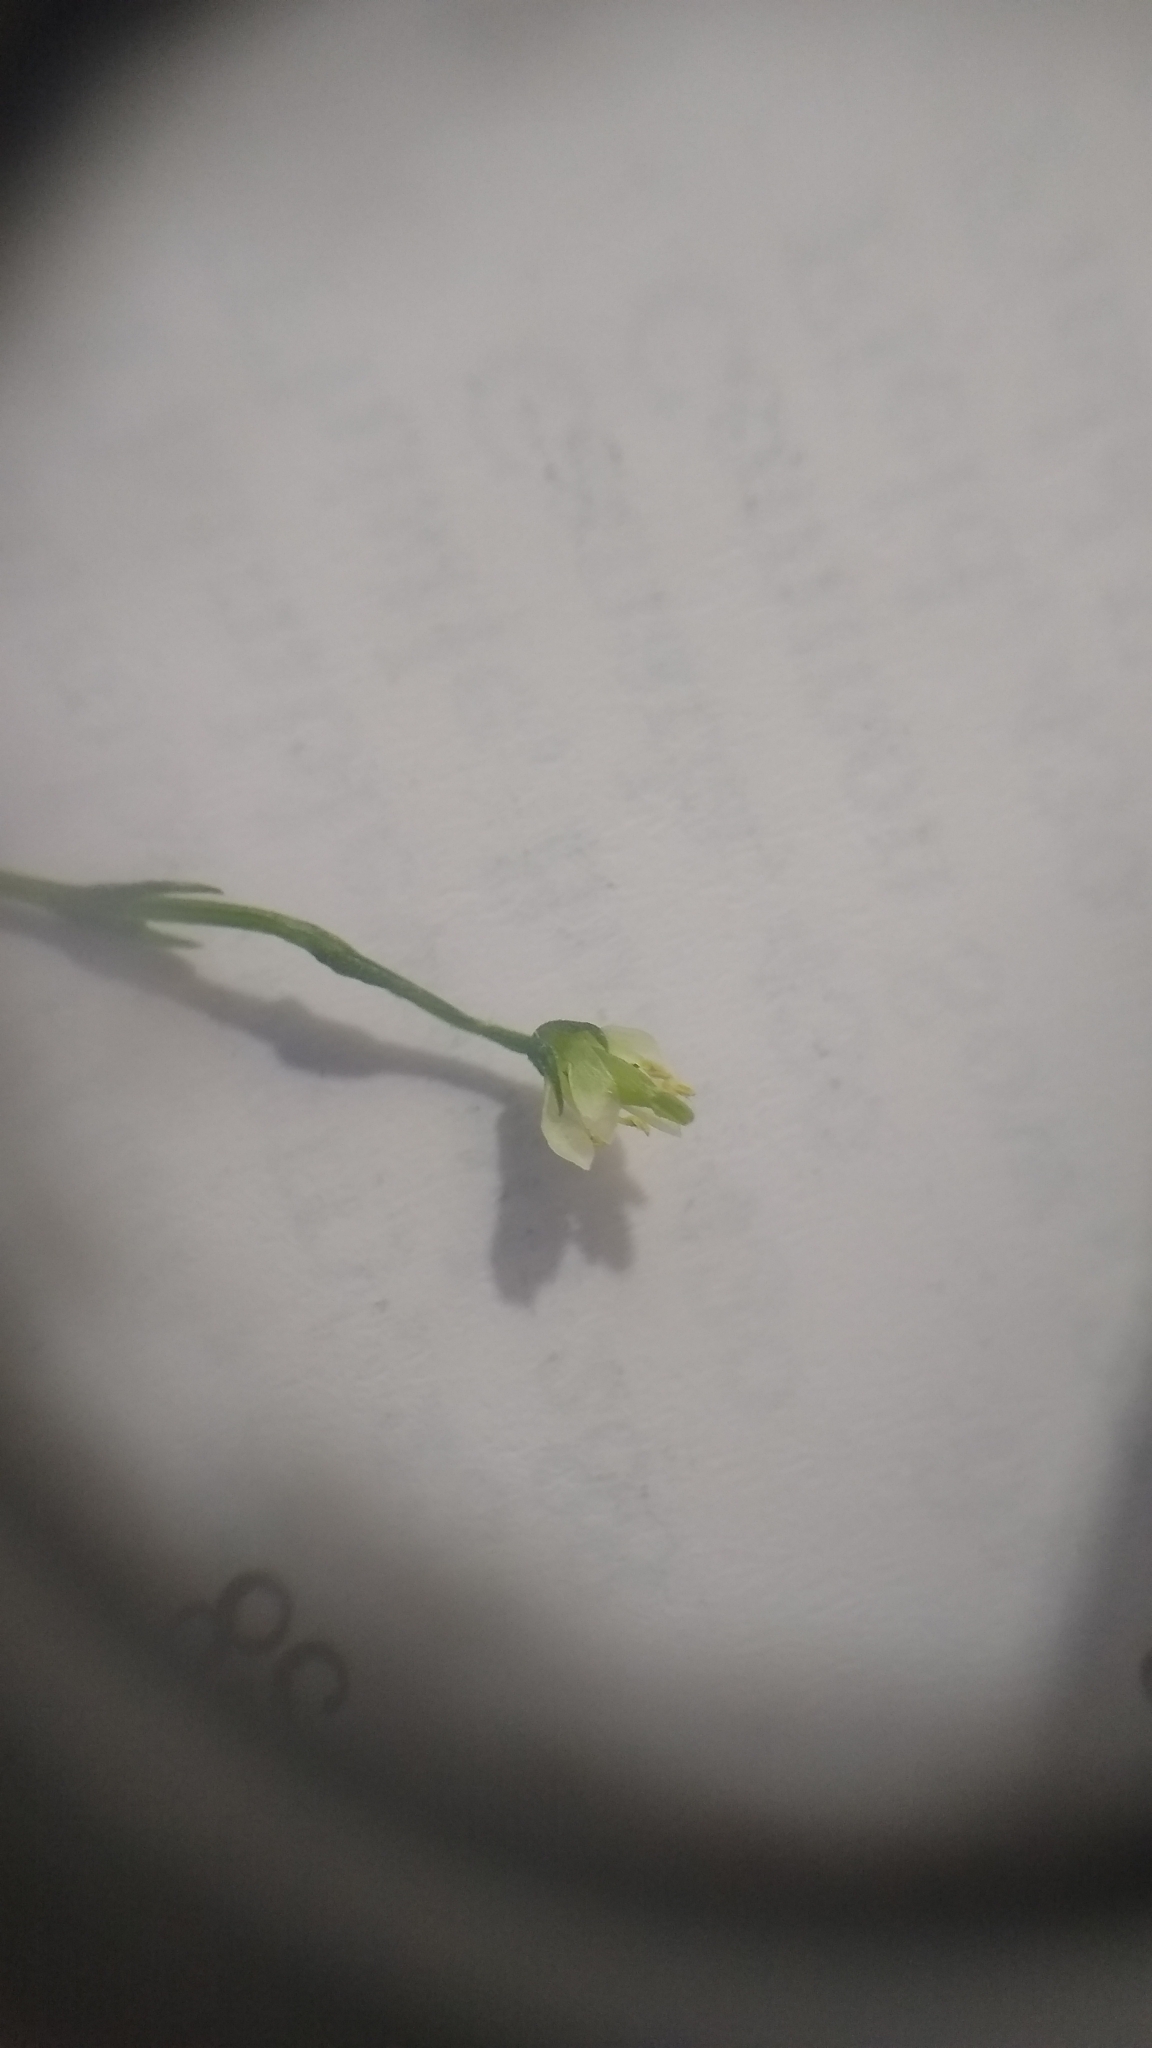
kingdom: Plantae
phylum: Tracheophyta
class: Magnoliopsida
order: Gentianales
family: Gentianaceae
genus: Bartonia
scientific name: Bartonia virginica
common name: Yellow bartonia
